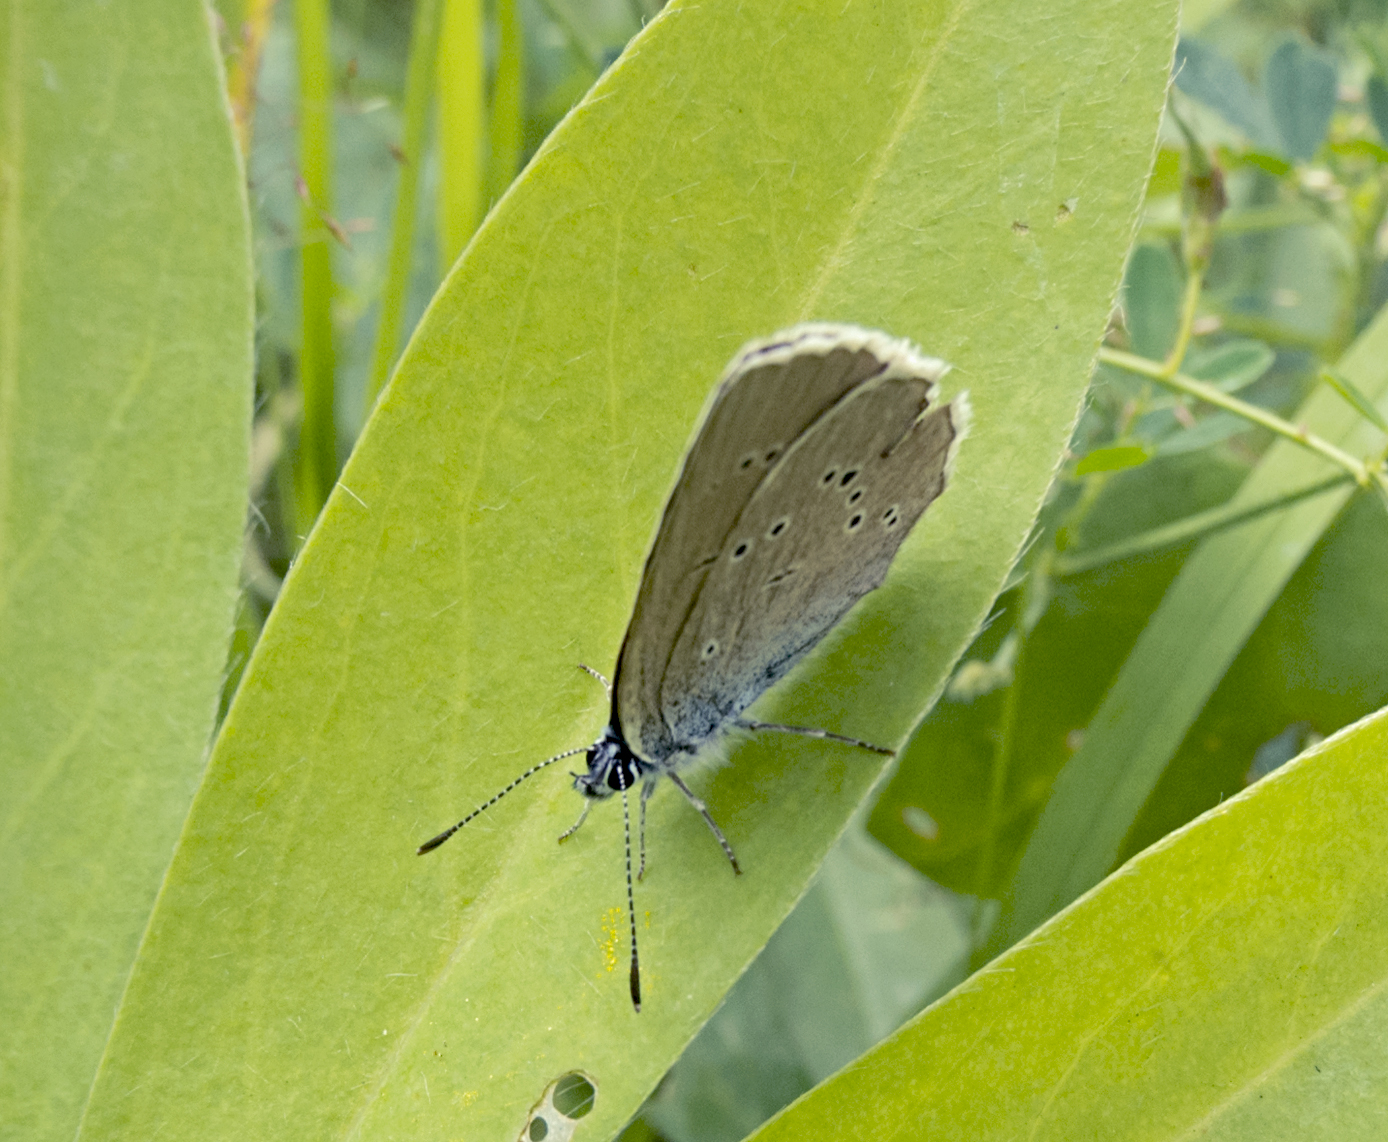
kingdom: Animalia
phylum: Arthropoda
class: Insecta
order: Lepidoptera
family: Lycaenidae
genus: Cyaniris
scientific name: Cyaniris semiargus
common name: Mazarine blue
